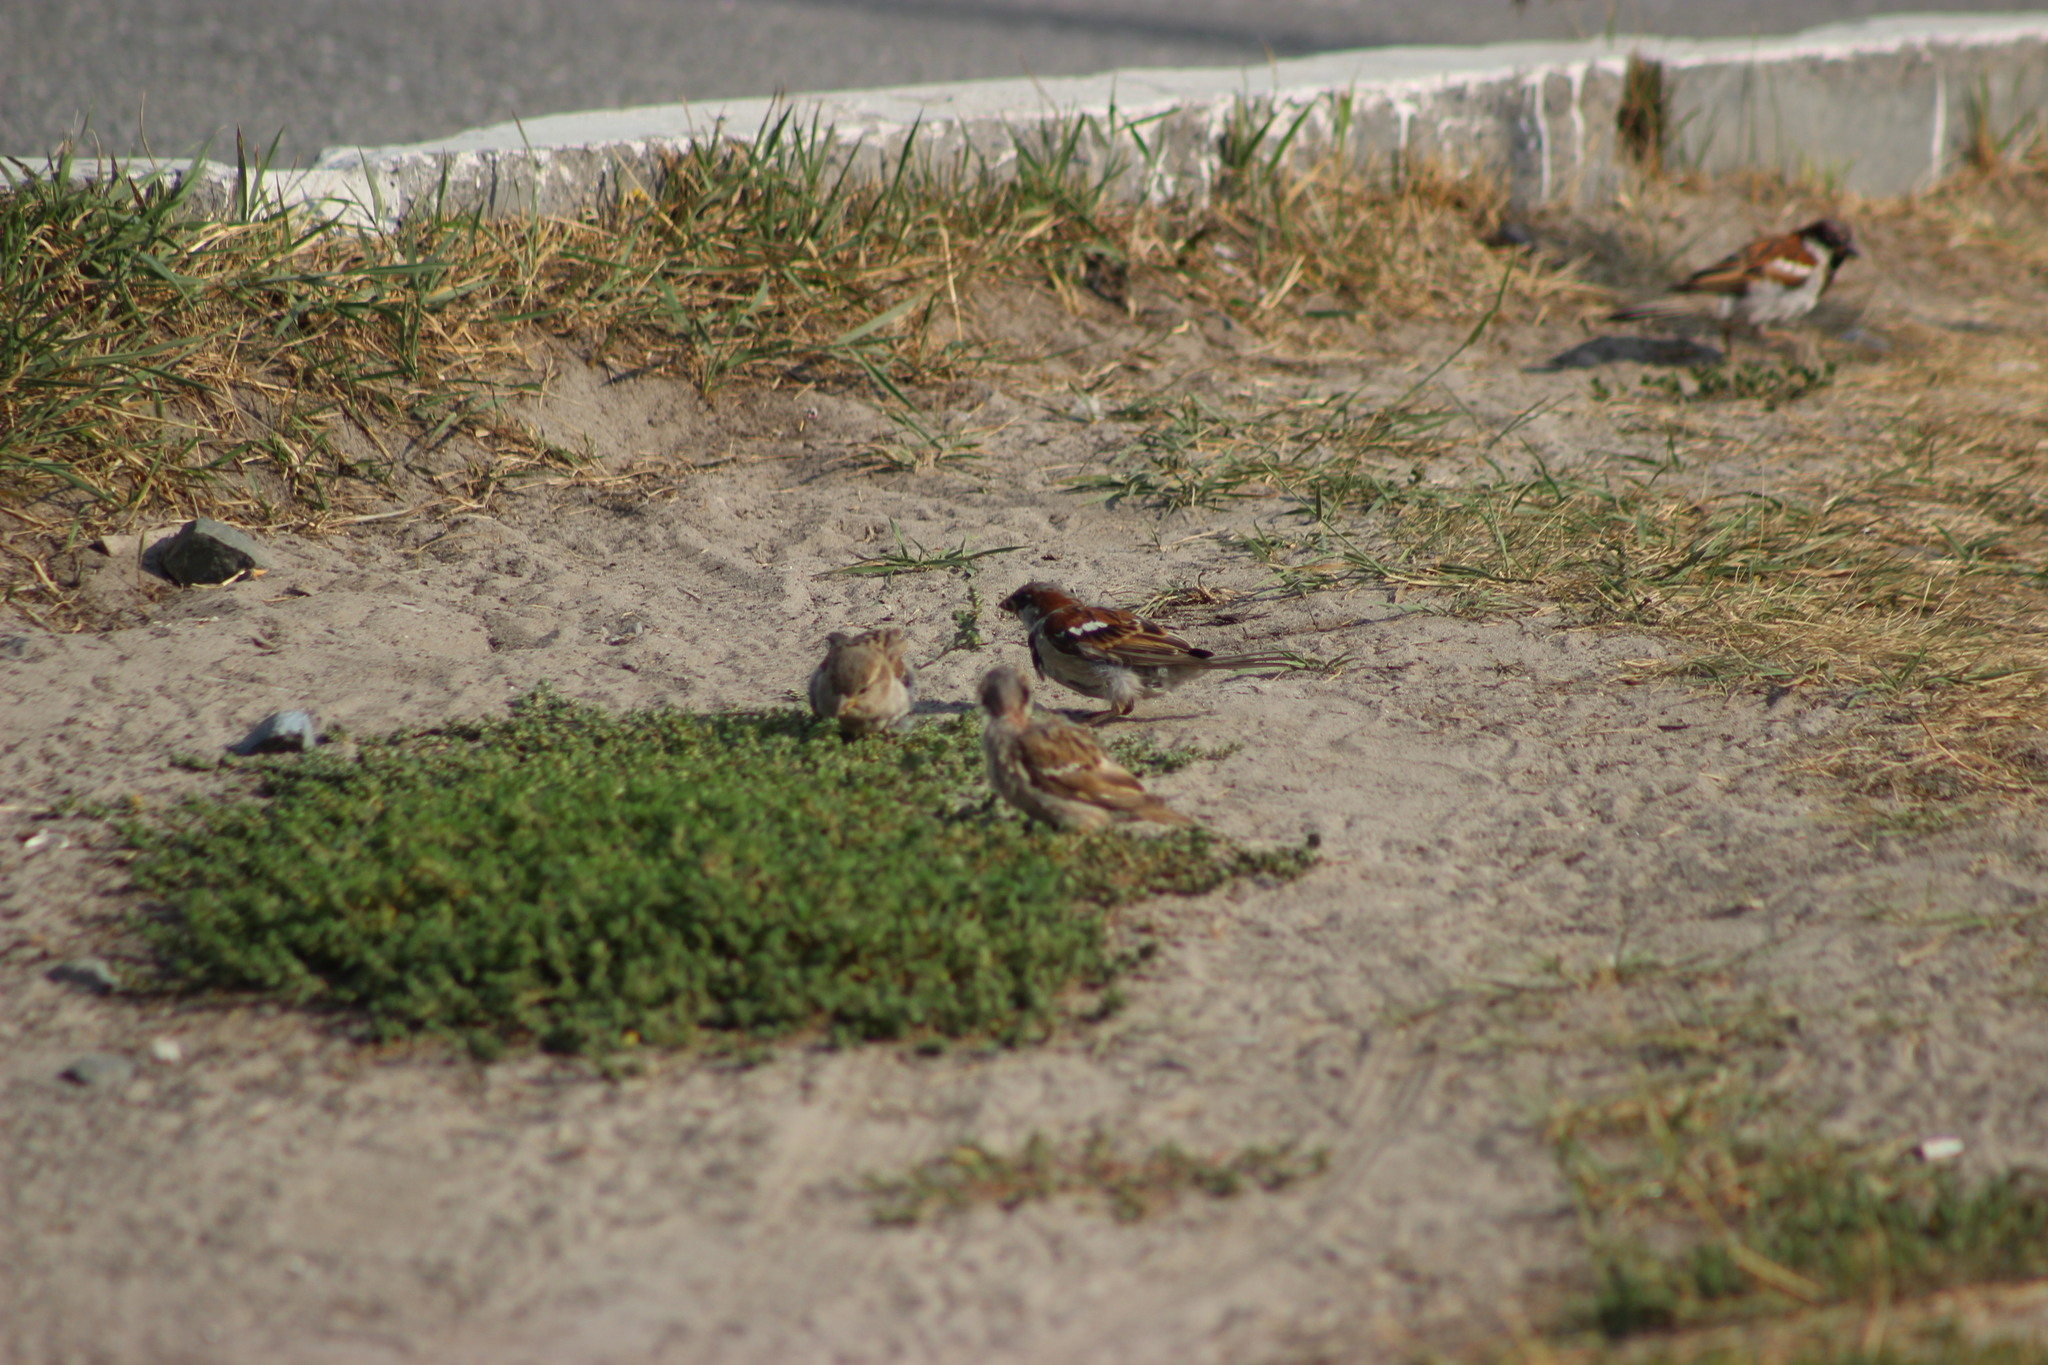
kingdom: Animalia
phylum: Chordata
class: Aves
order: Passeriformes
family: Passeridae
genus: Passer
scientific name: Passer domesticus
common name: House sparrow
